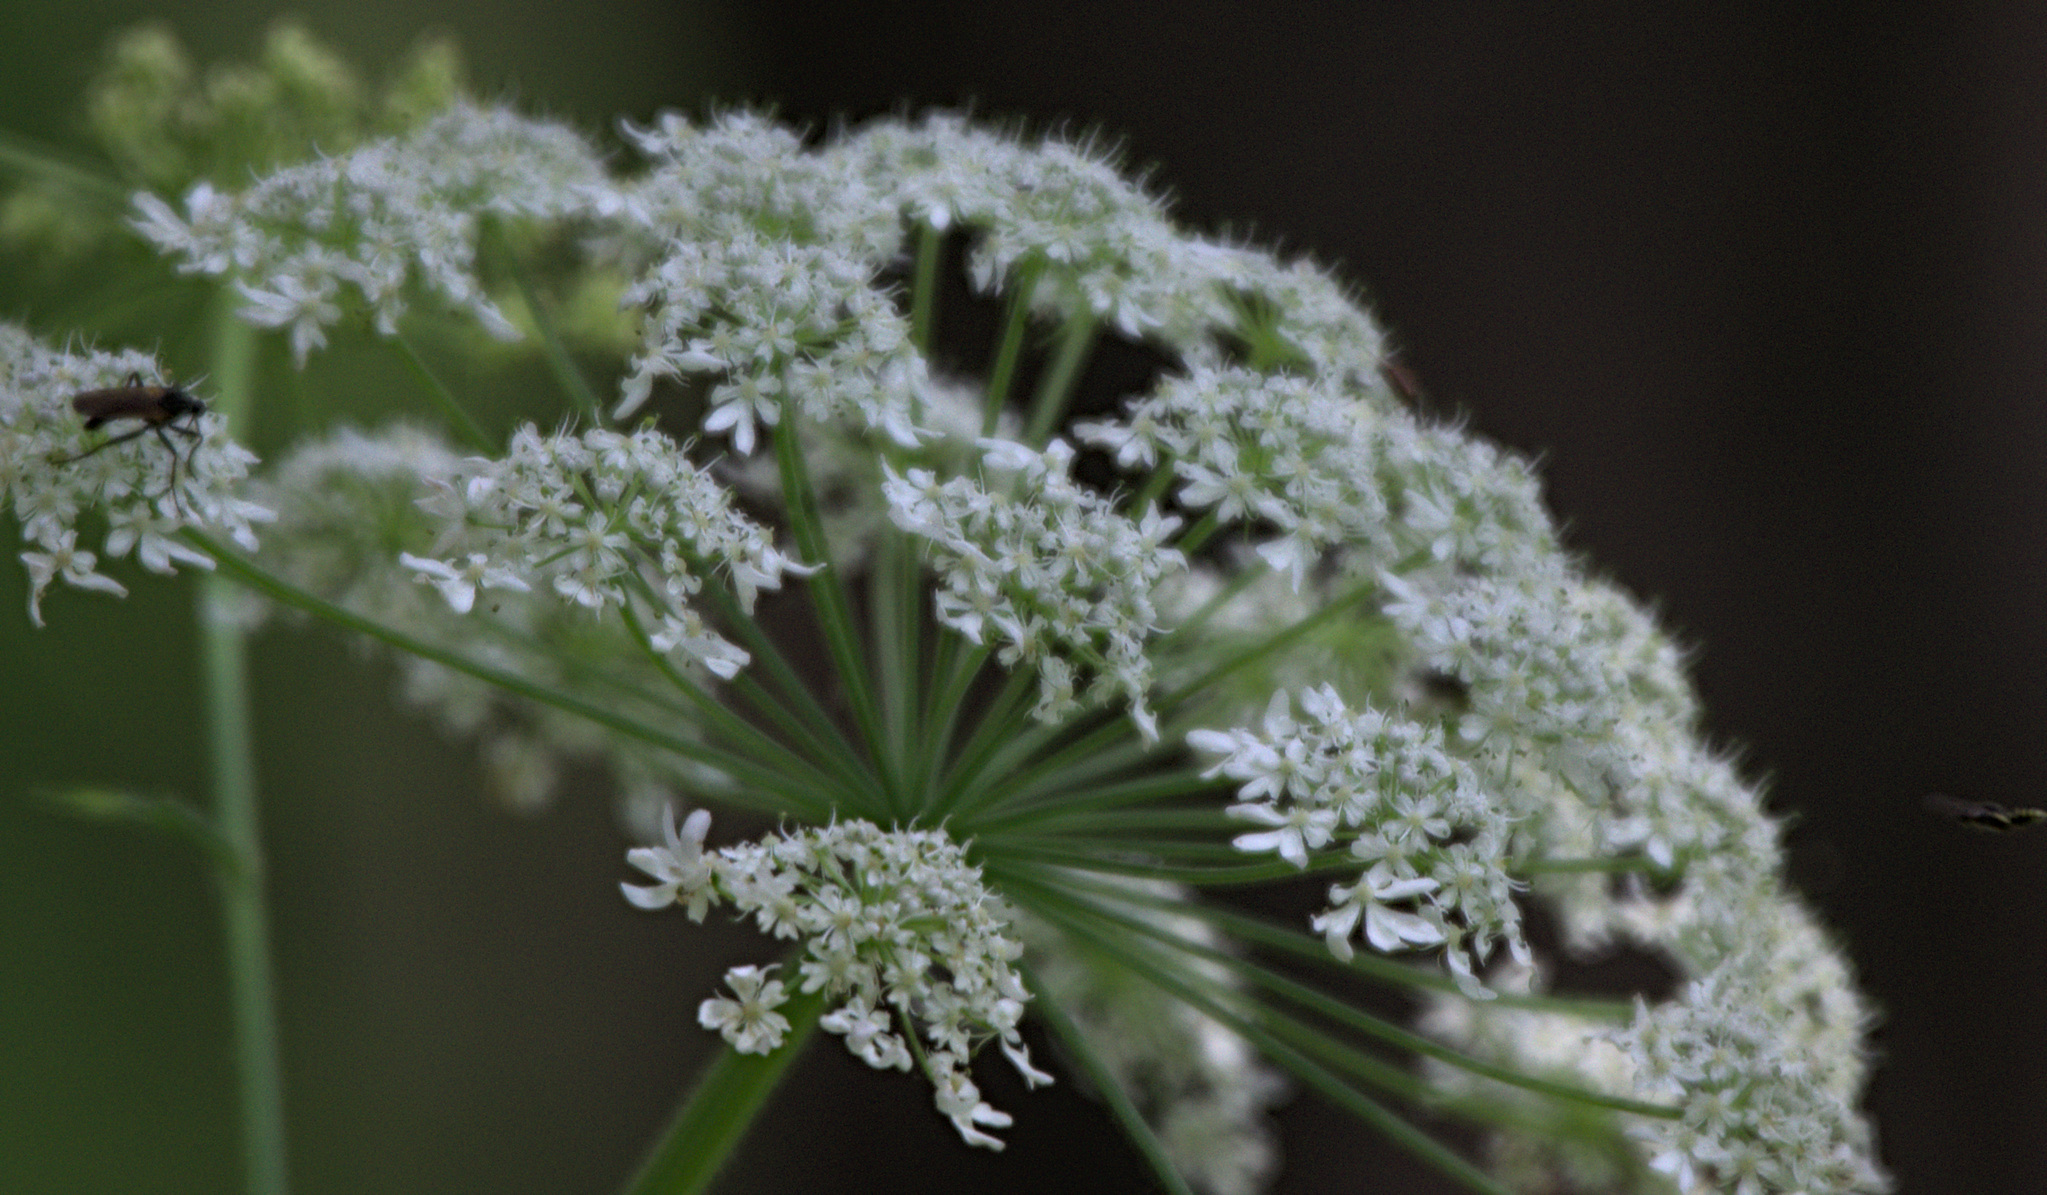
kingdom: Plantae
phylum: Tracheophyta
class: Magnoliopsida
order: Apiales
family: Apiaceae
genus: Heracleum
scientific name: Heracleum dissectum
